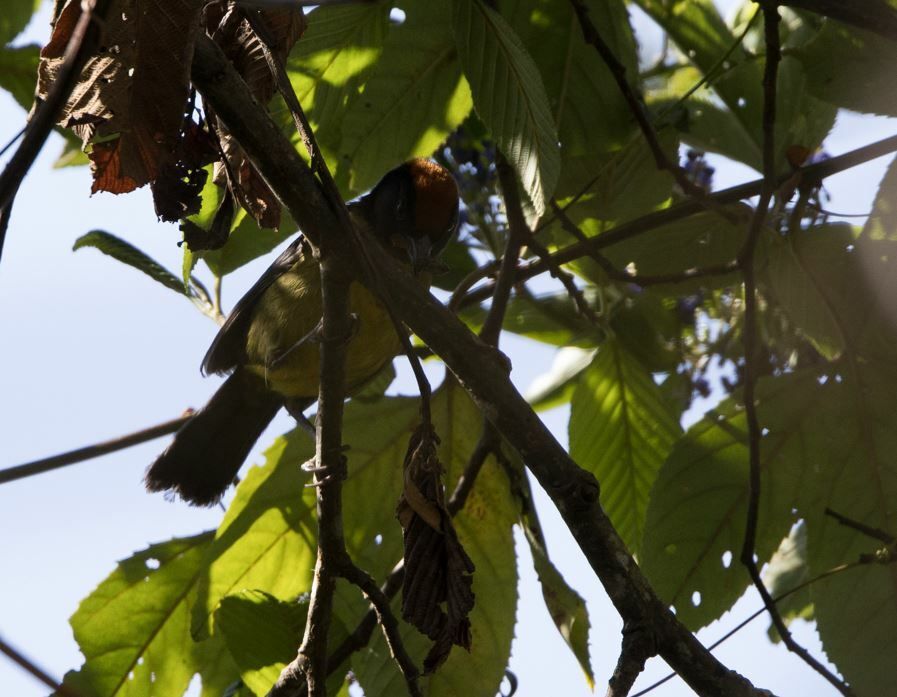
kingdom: Animalia
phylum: Chordata
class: Aves
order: Passeriformes
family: Passerellidae
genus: Atlapetes
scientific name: Atlapetes melanolaemus
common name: Grey-eared brush finch
